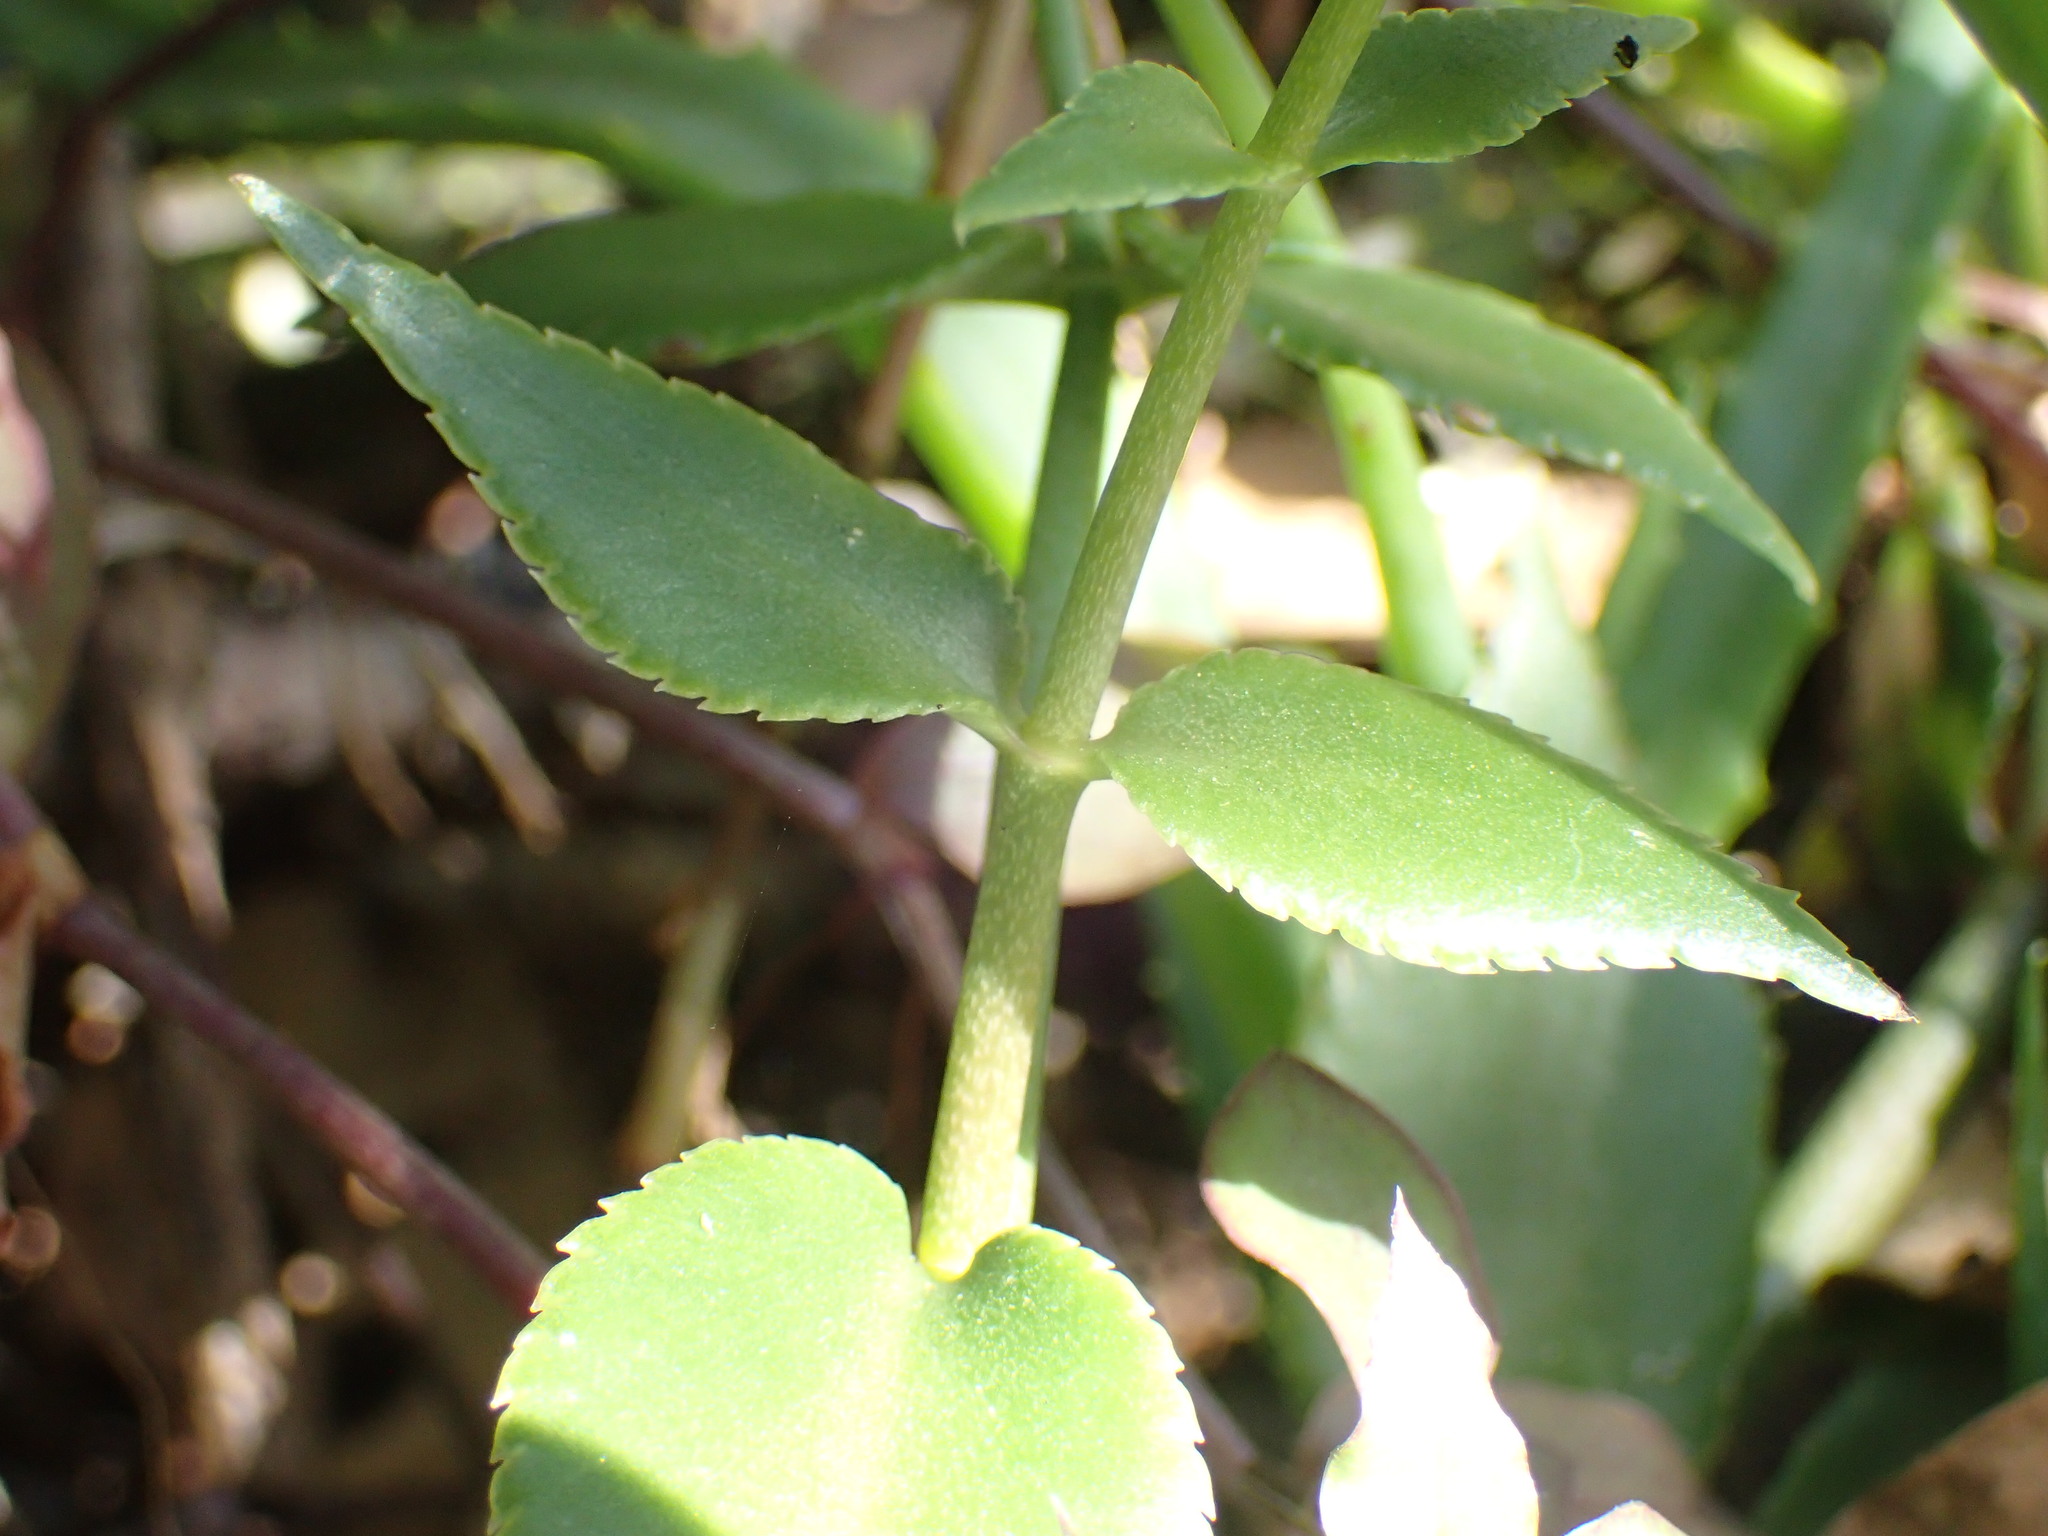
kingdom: Plantae
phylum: Tracheophyta
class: Magnoliopsida
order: Saxifragales
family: Crassulaceae
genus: Crassula
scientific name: Crassula sarmentosa
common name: Jade-tree
